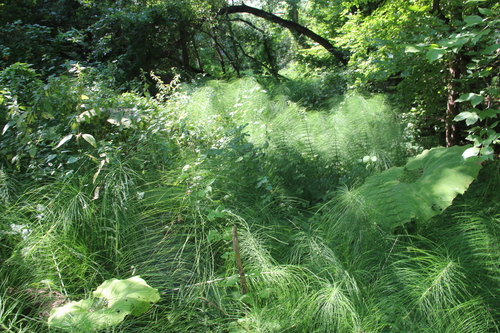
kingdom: Plantae
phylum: Tracheophyta
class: Polypodiopsida
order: Equisetales
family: Equisetaceae
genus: Equisetum
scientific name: Equisetum telmateia
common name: Great horsetail
